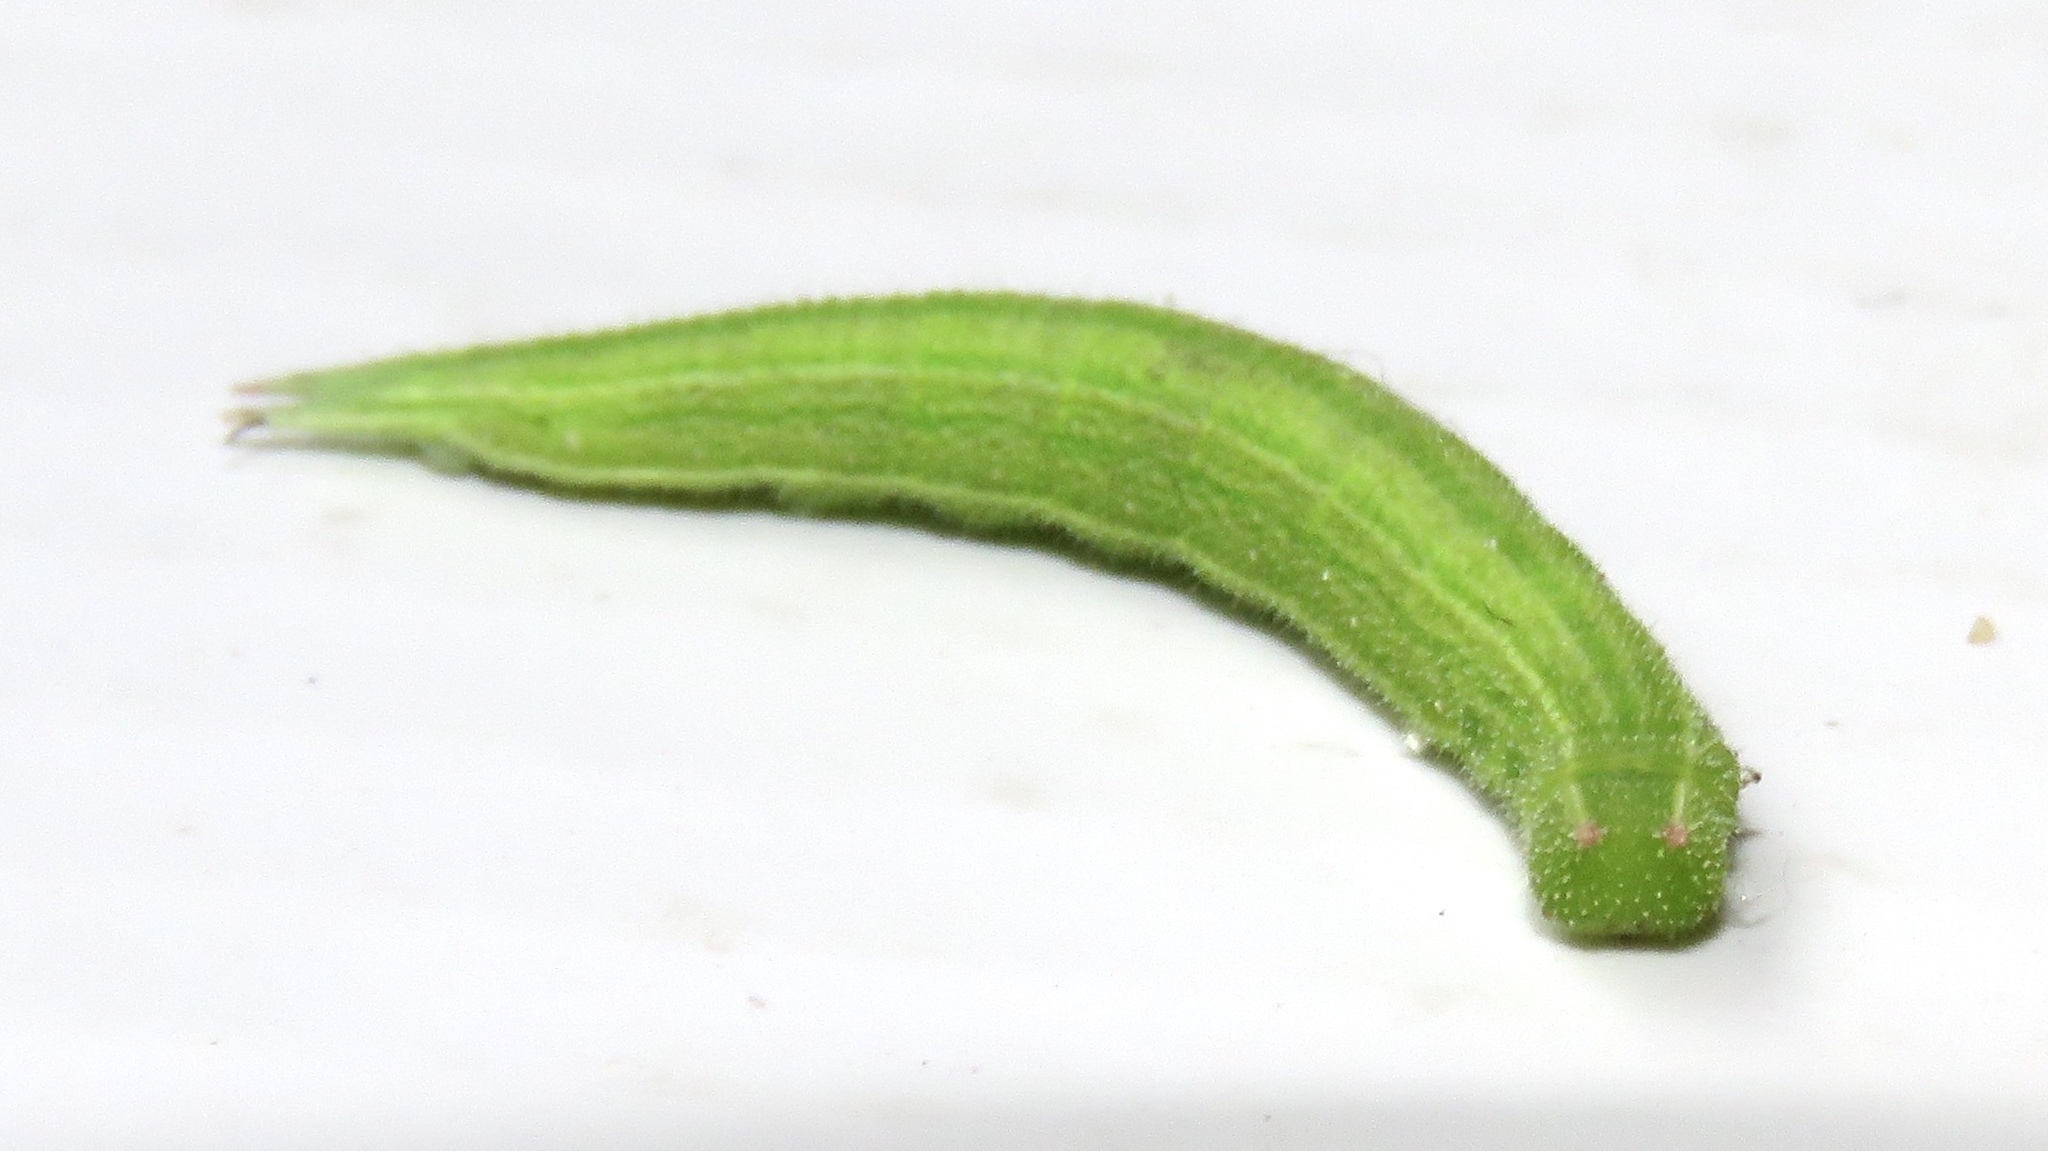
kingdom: Animalia
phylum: Arthropoda
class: Insecta
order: Lepidoptera
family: Nymphalidae
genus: Lethe
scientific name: Lethe anthedon
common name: Northern pearly-eye
